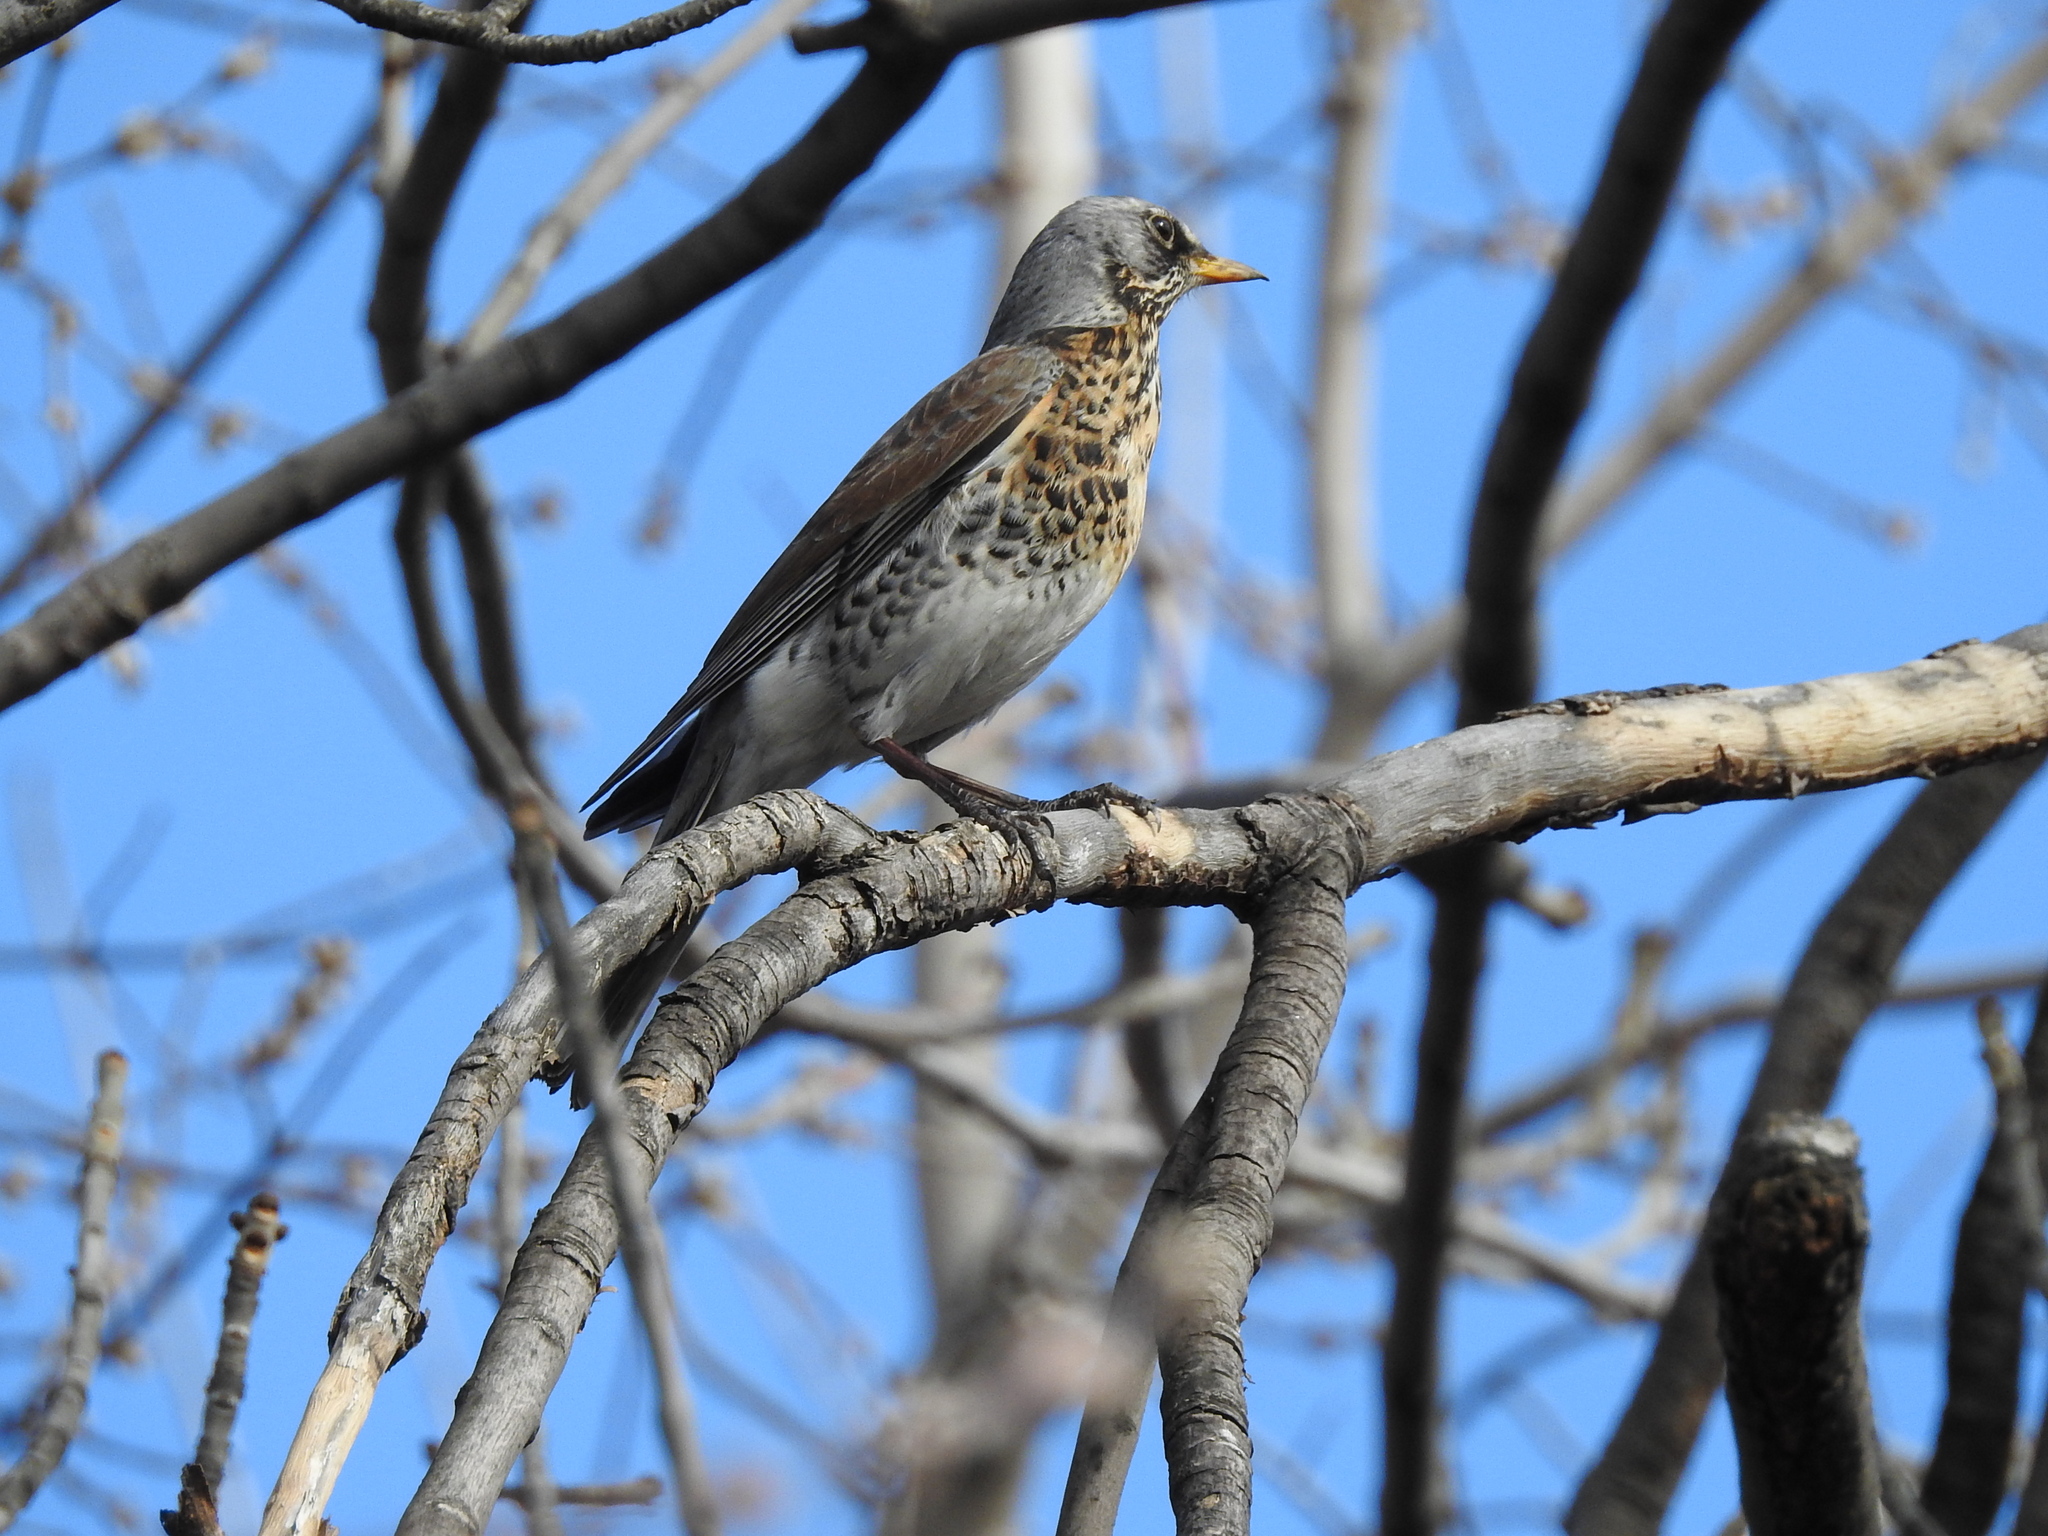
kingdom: Animalia
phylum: Chordata
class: Aves
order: Passeriformes
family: Turdidae
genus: Turdus
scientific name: Turdus pilaris
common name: Fieldfare
